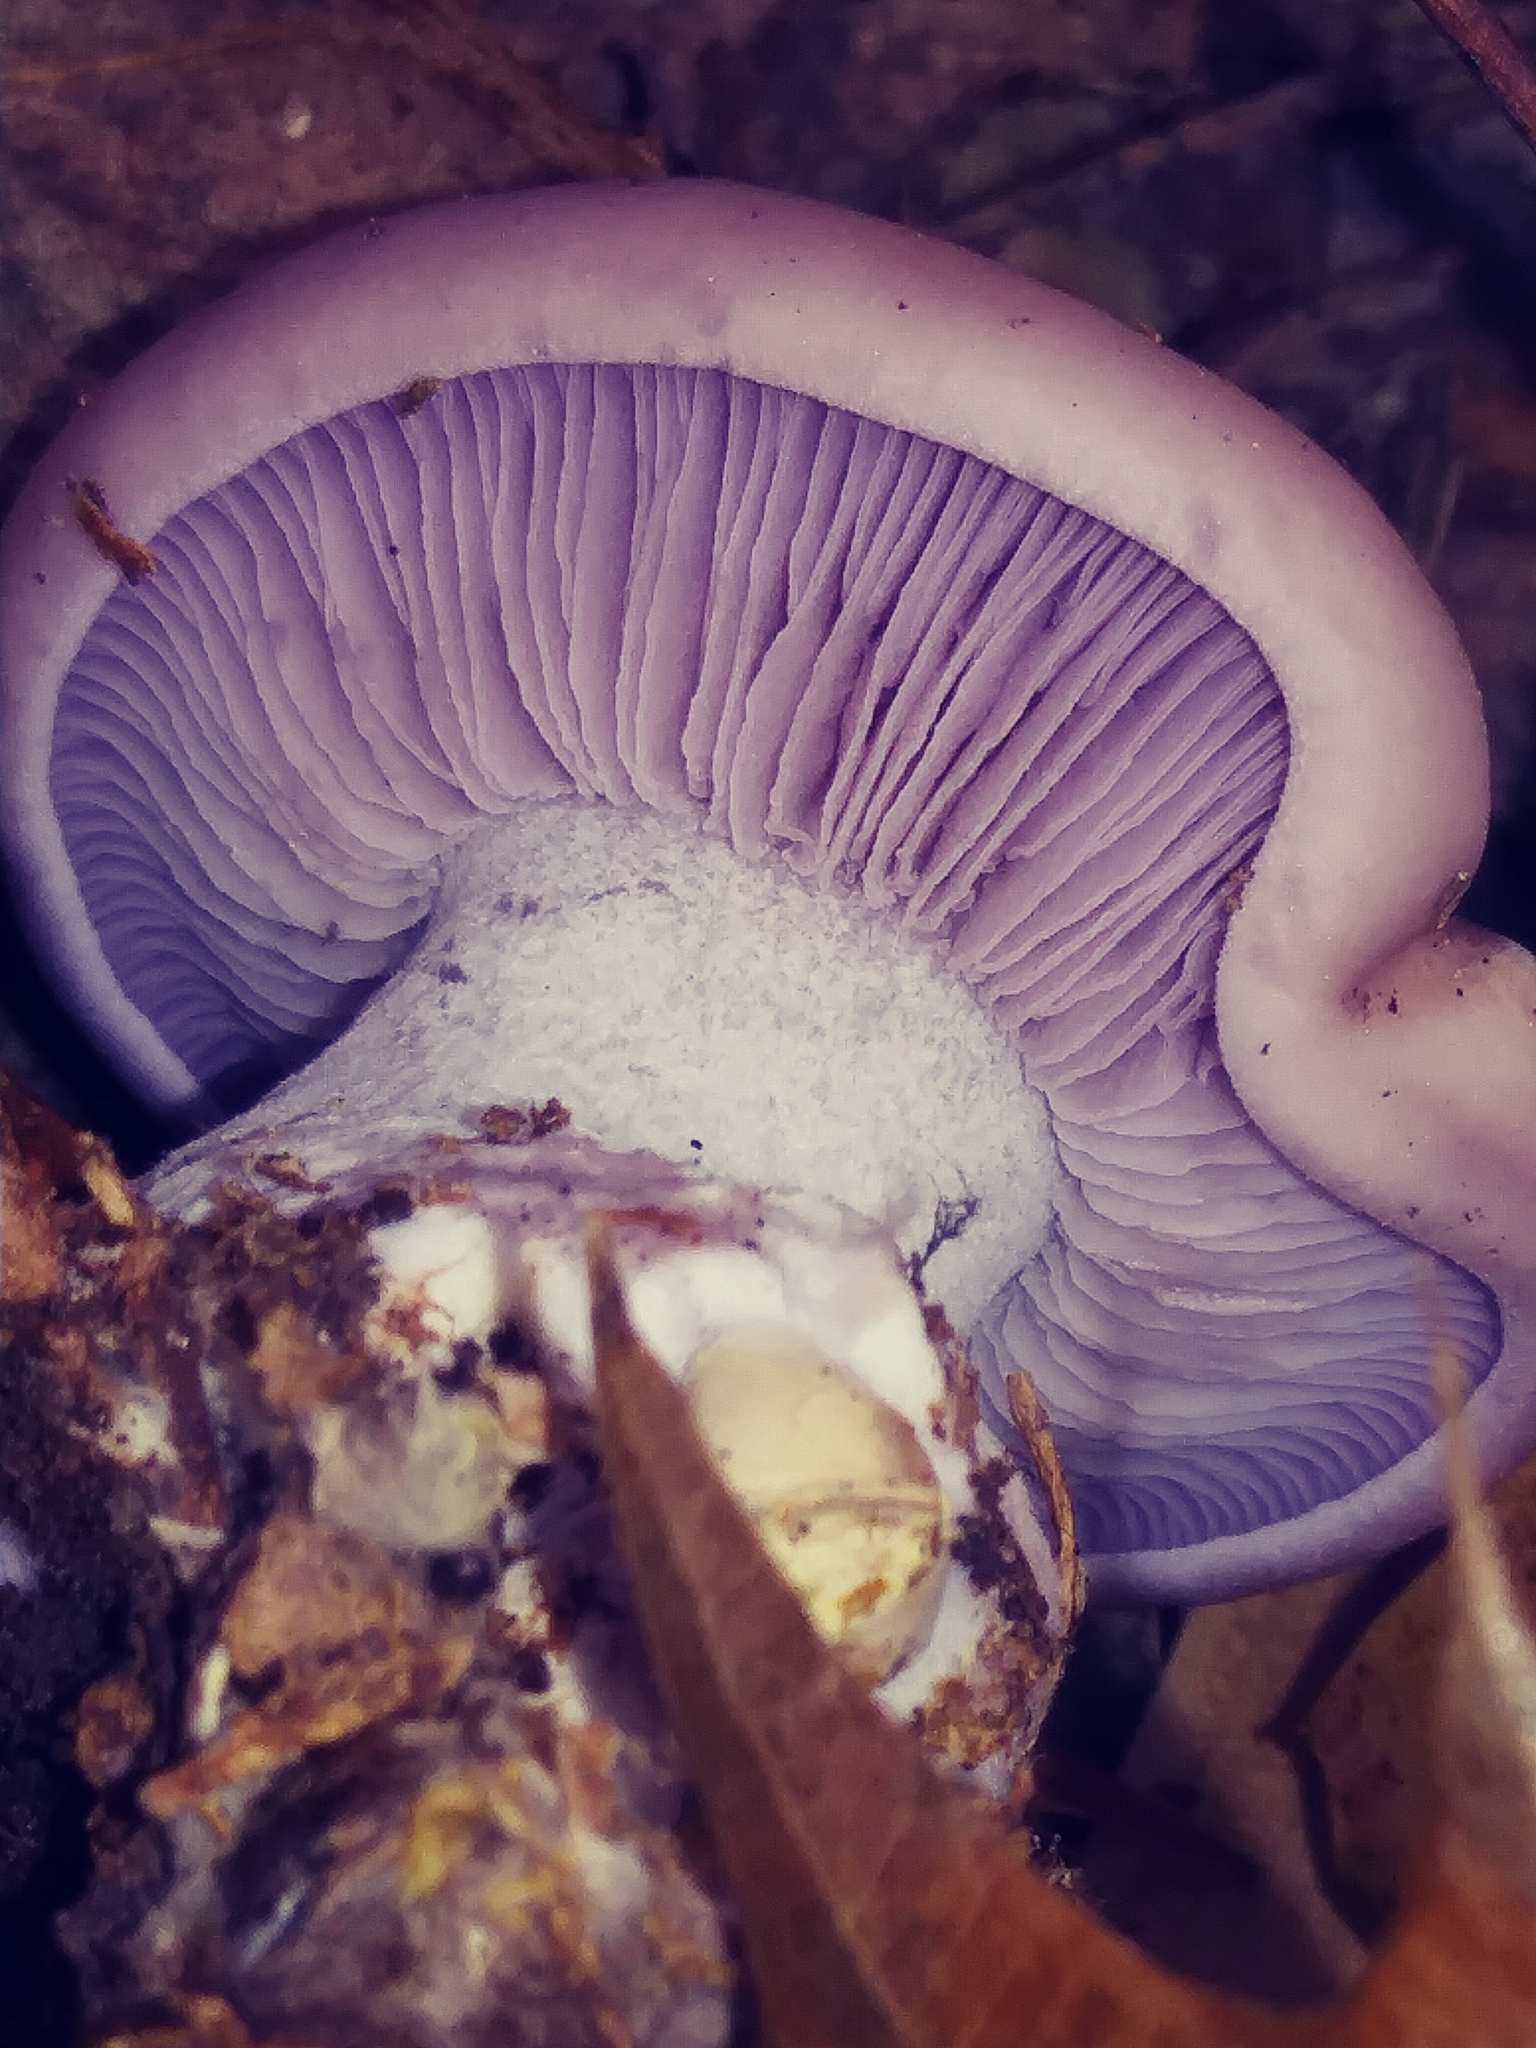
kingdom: Fungi
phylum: Basidiomycota
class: Agaricomycetes
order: Agaricales
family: Tricholomataceae
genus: Collybia
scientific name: Collybia
